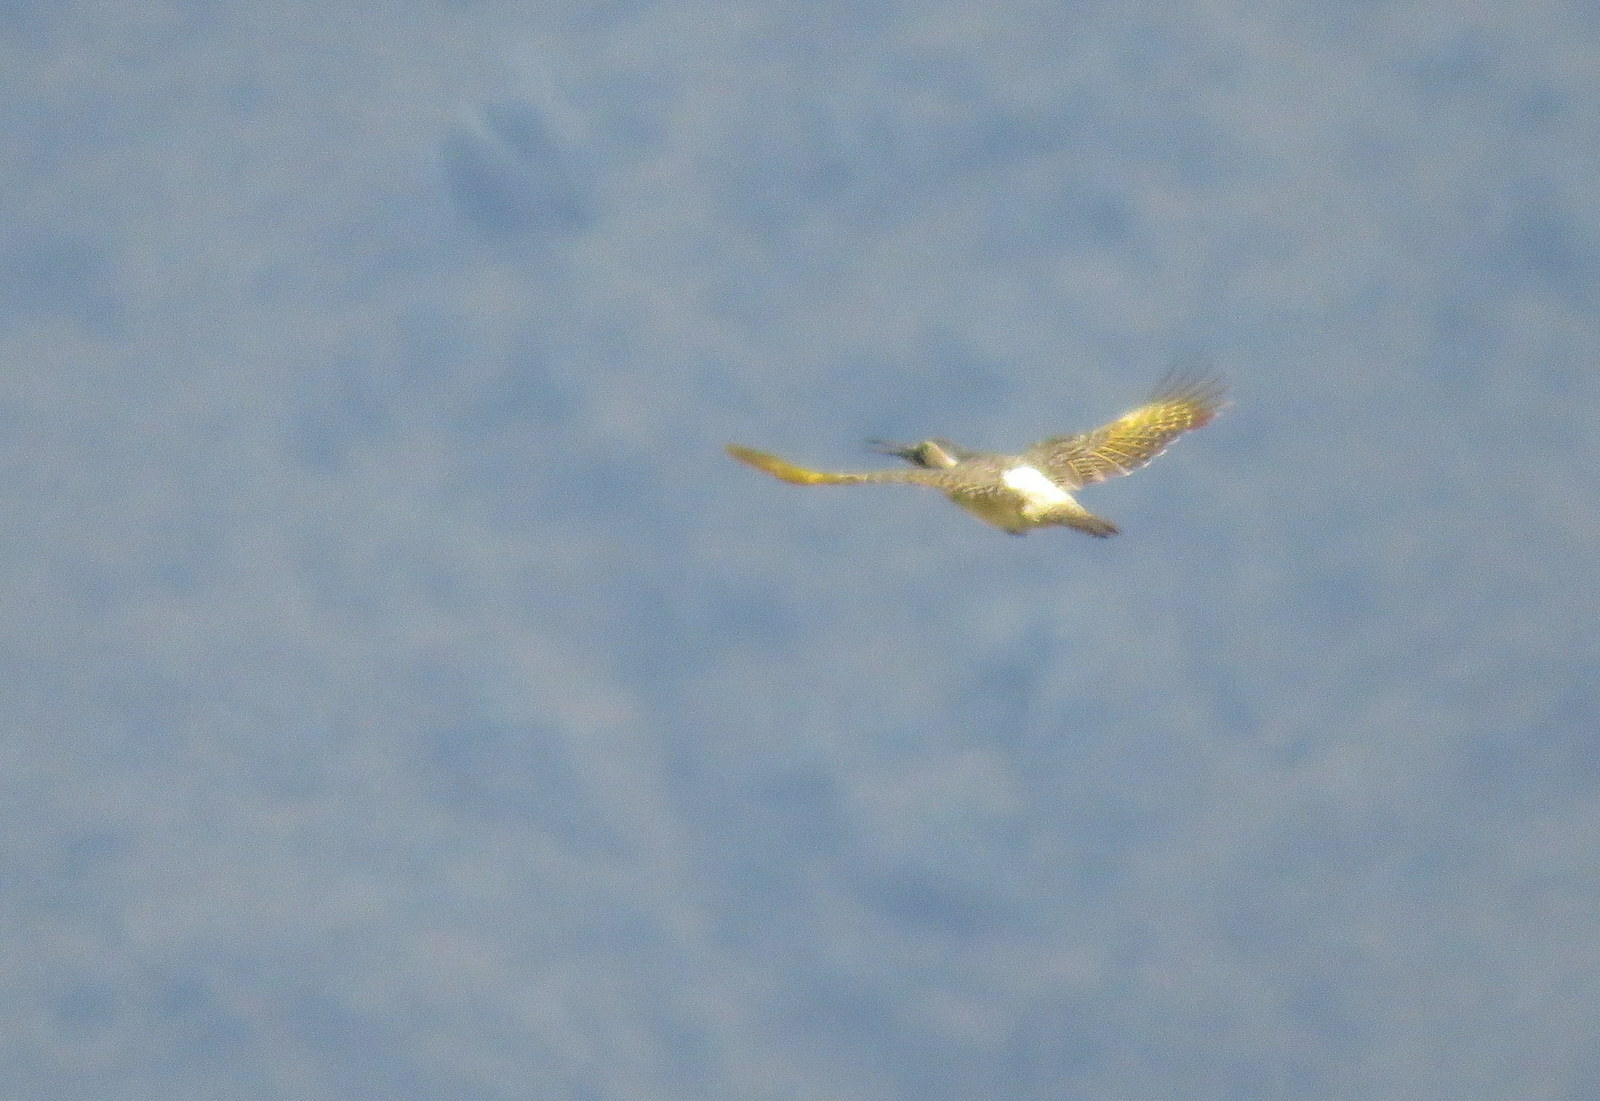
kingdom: Animalia
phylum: Chordata
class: Aves
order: Piciformes
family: Picidae
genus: Colaptes
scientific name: Colaptes rupicola
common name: Andean flicker
